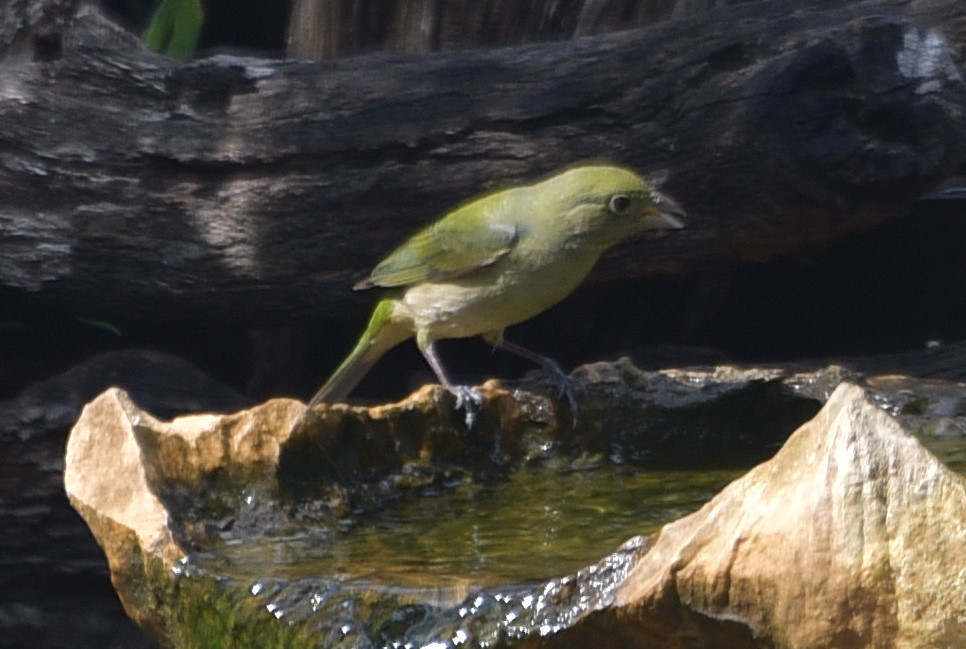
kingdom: Animalia
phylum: Chordata
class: Aves
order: Passeriformes
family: Cardinalidae
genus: Passerina
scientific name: Passerina ciris
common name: Painted bunting
